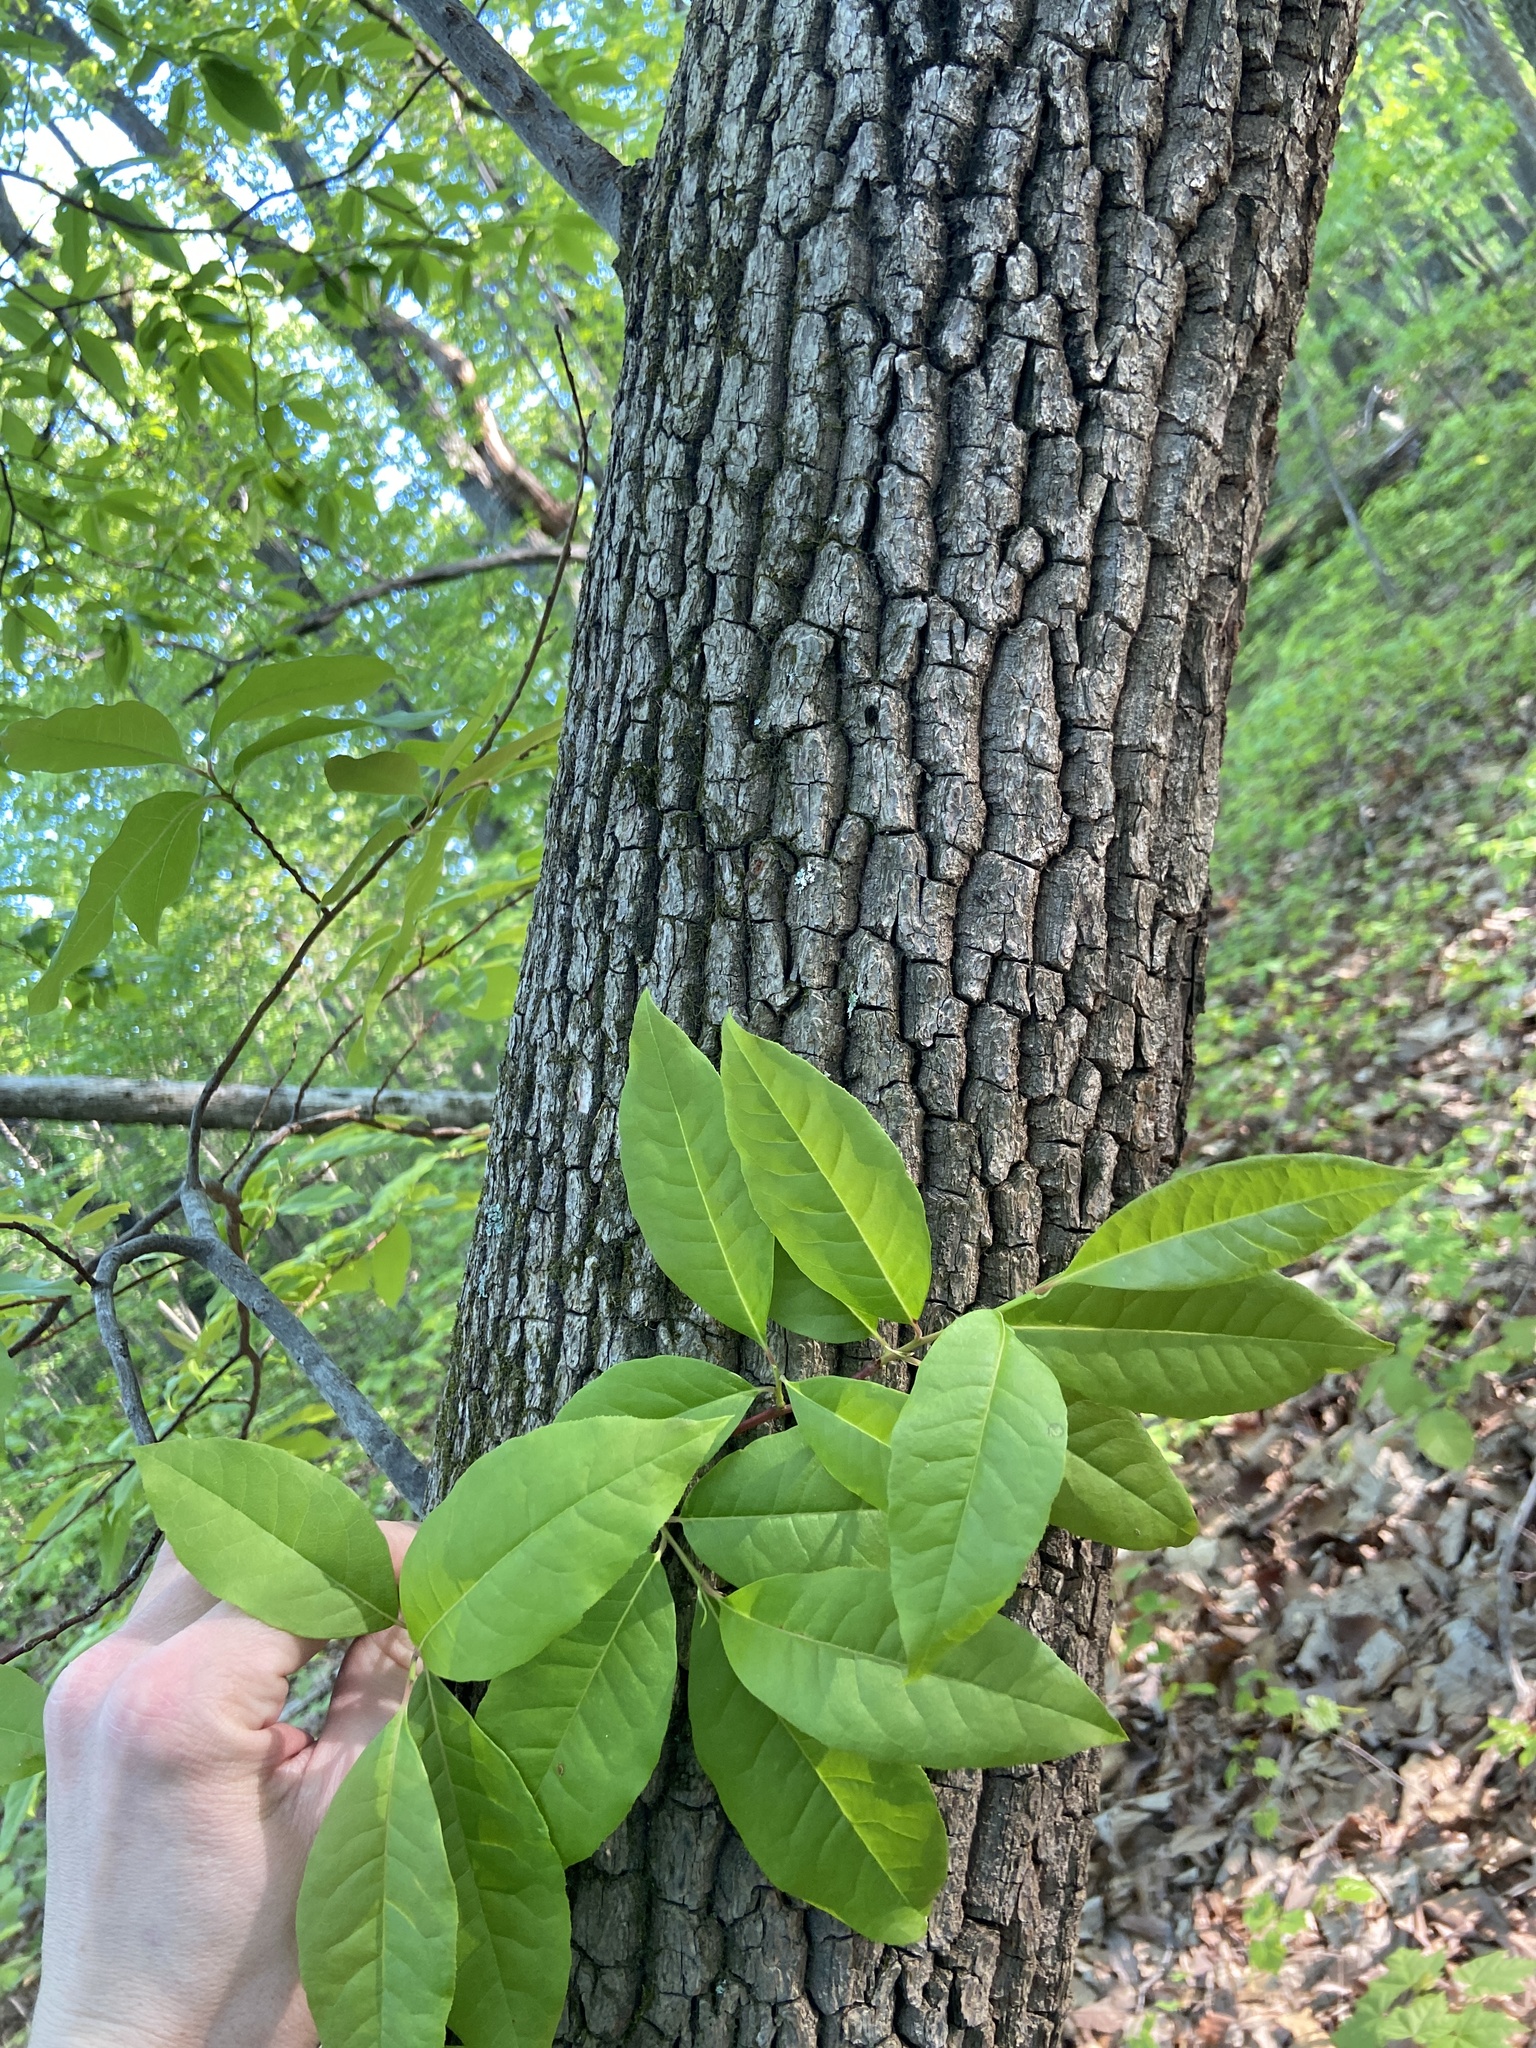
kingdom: Plantae
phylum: Tracheophyta
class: Magnoliopsida
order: Ericales
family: Ericaceae
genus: Oxydendrum
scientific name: Oxydendrum arboreum
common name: Sourwood
